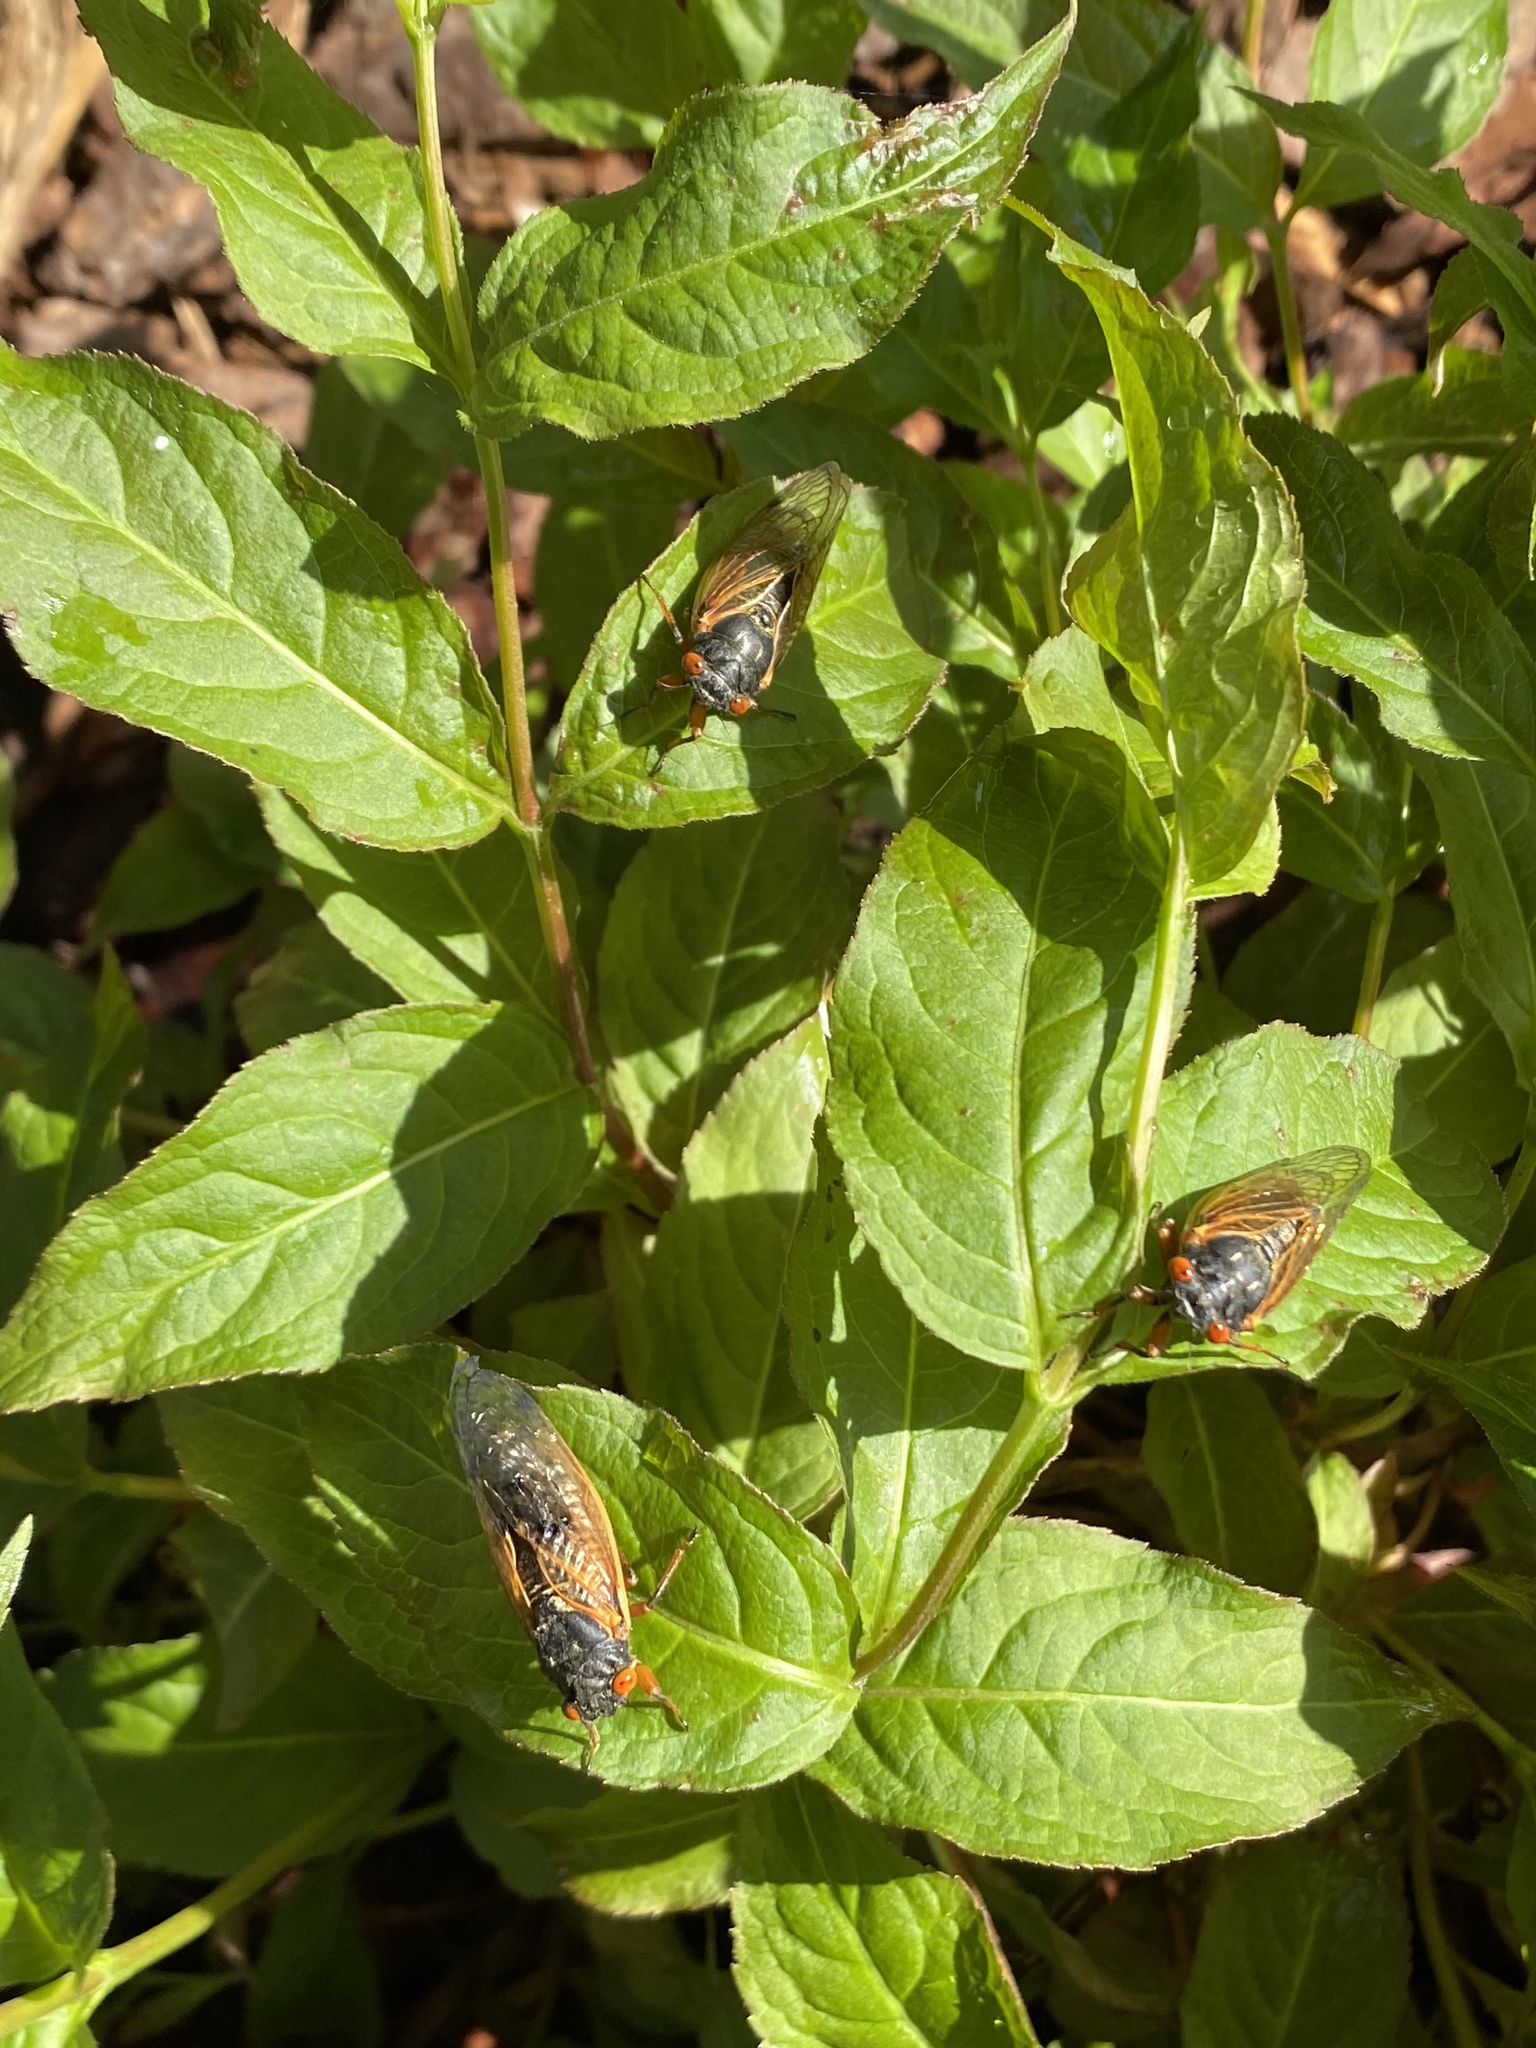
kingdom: Animalia
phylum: Arthropoda
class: Insecta
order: Hemiptera
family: Cicadidae
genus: Magicicada
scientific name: Magicicada
